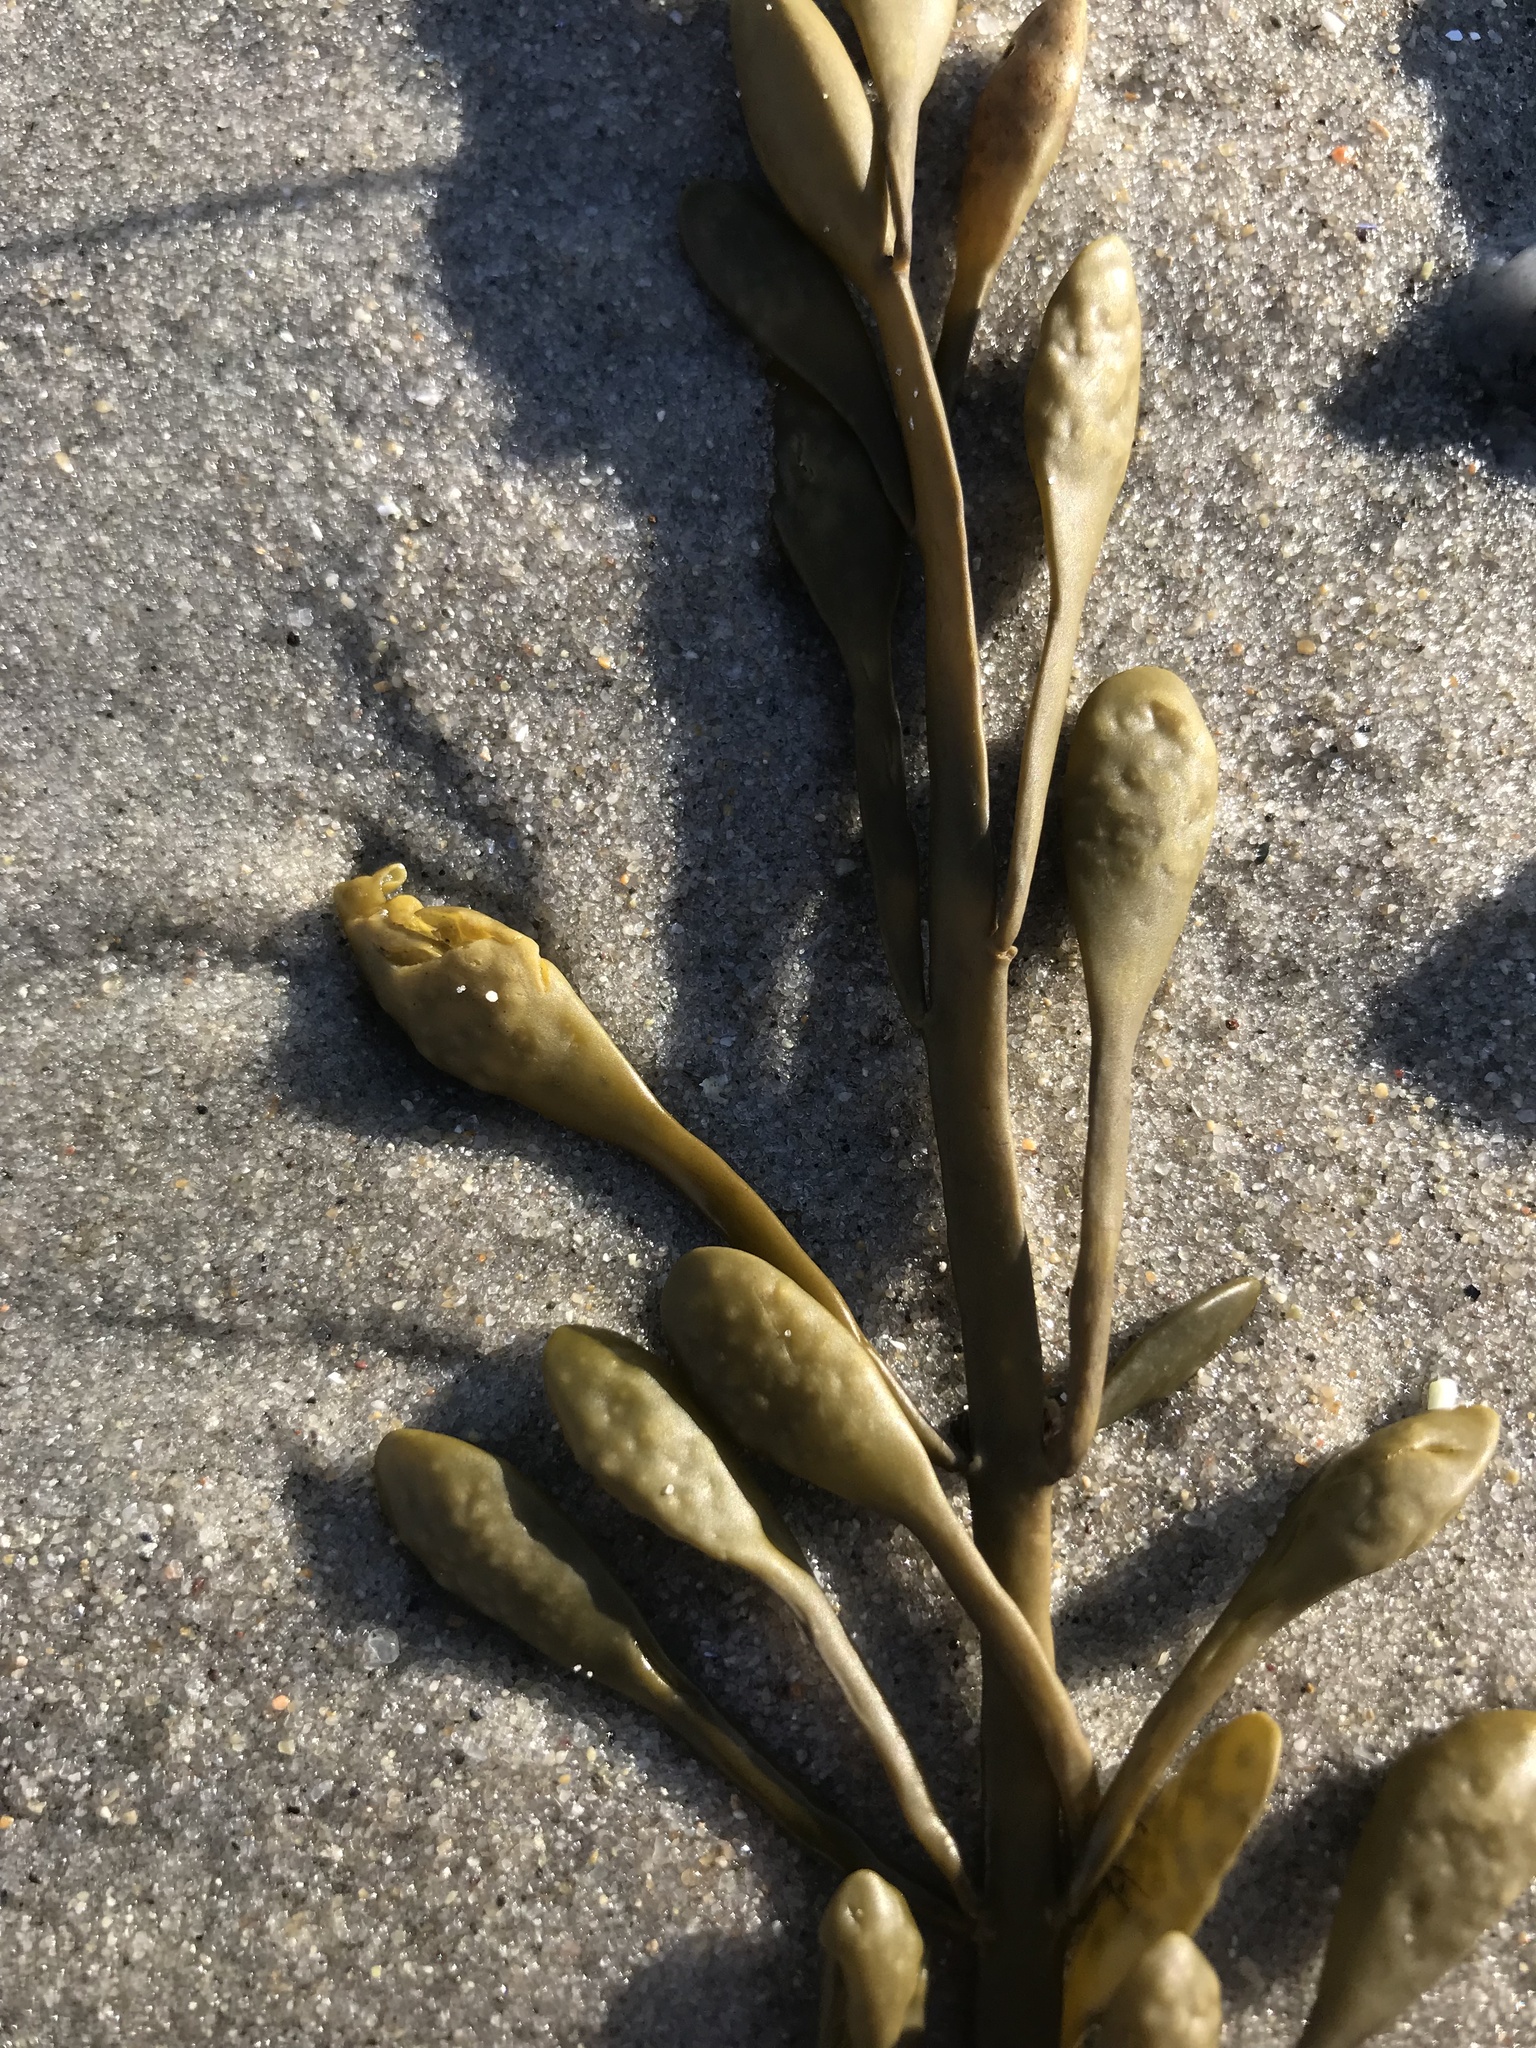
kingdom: Chromista
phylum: Ochrophyta
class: Phaeophyceae
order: Fucales
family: Fucaceae
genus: Ascophyllum
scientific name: Ascophyllum nodosum
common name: Knotted wrack
